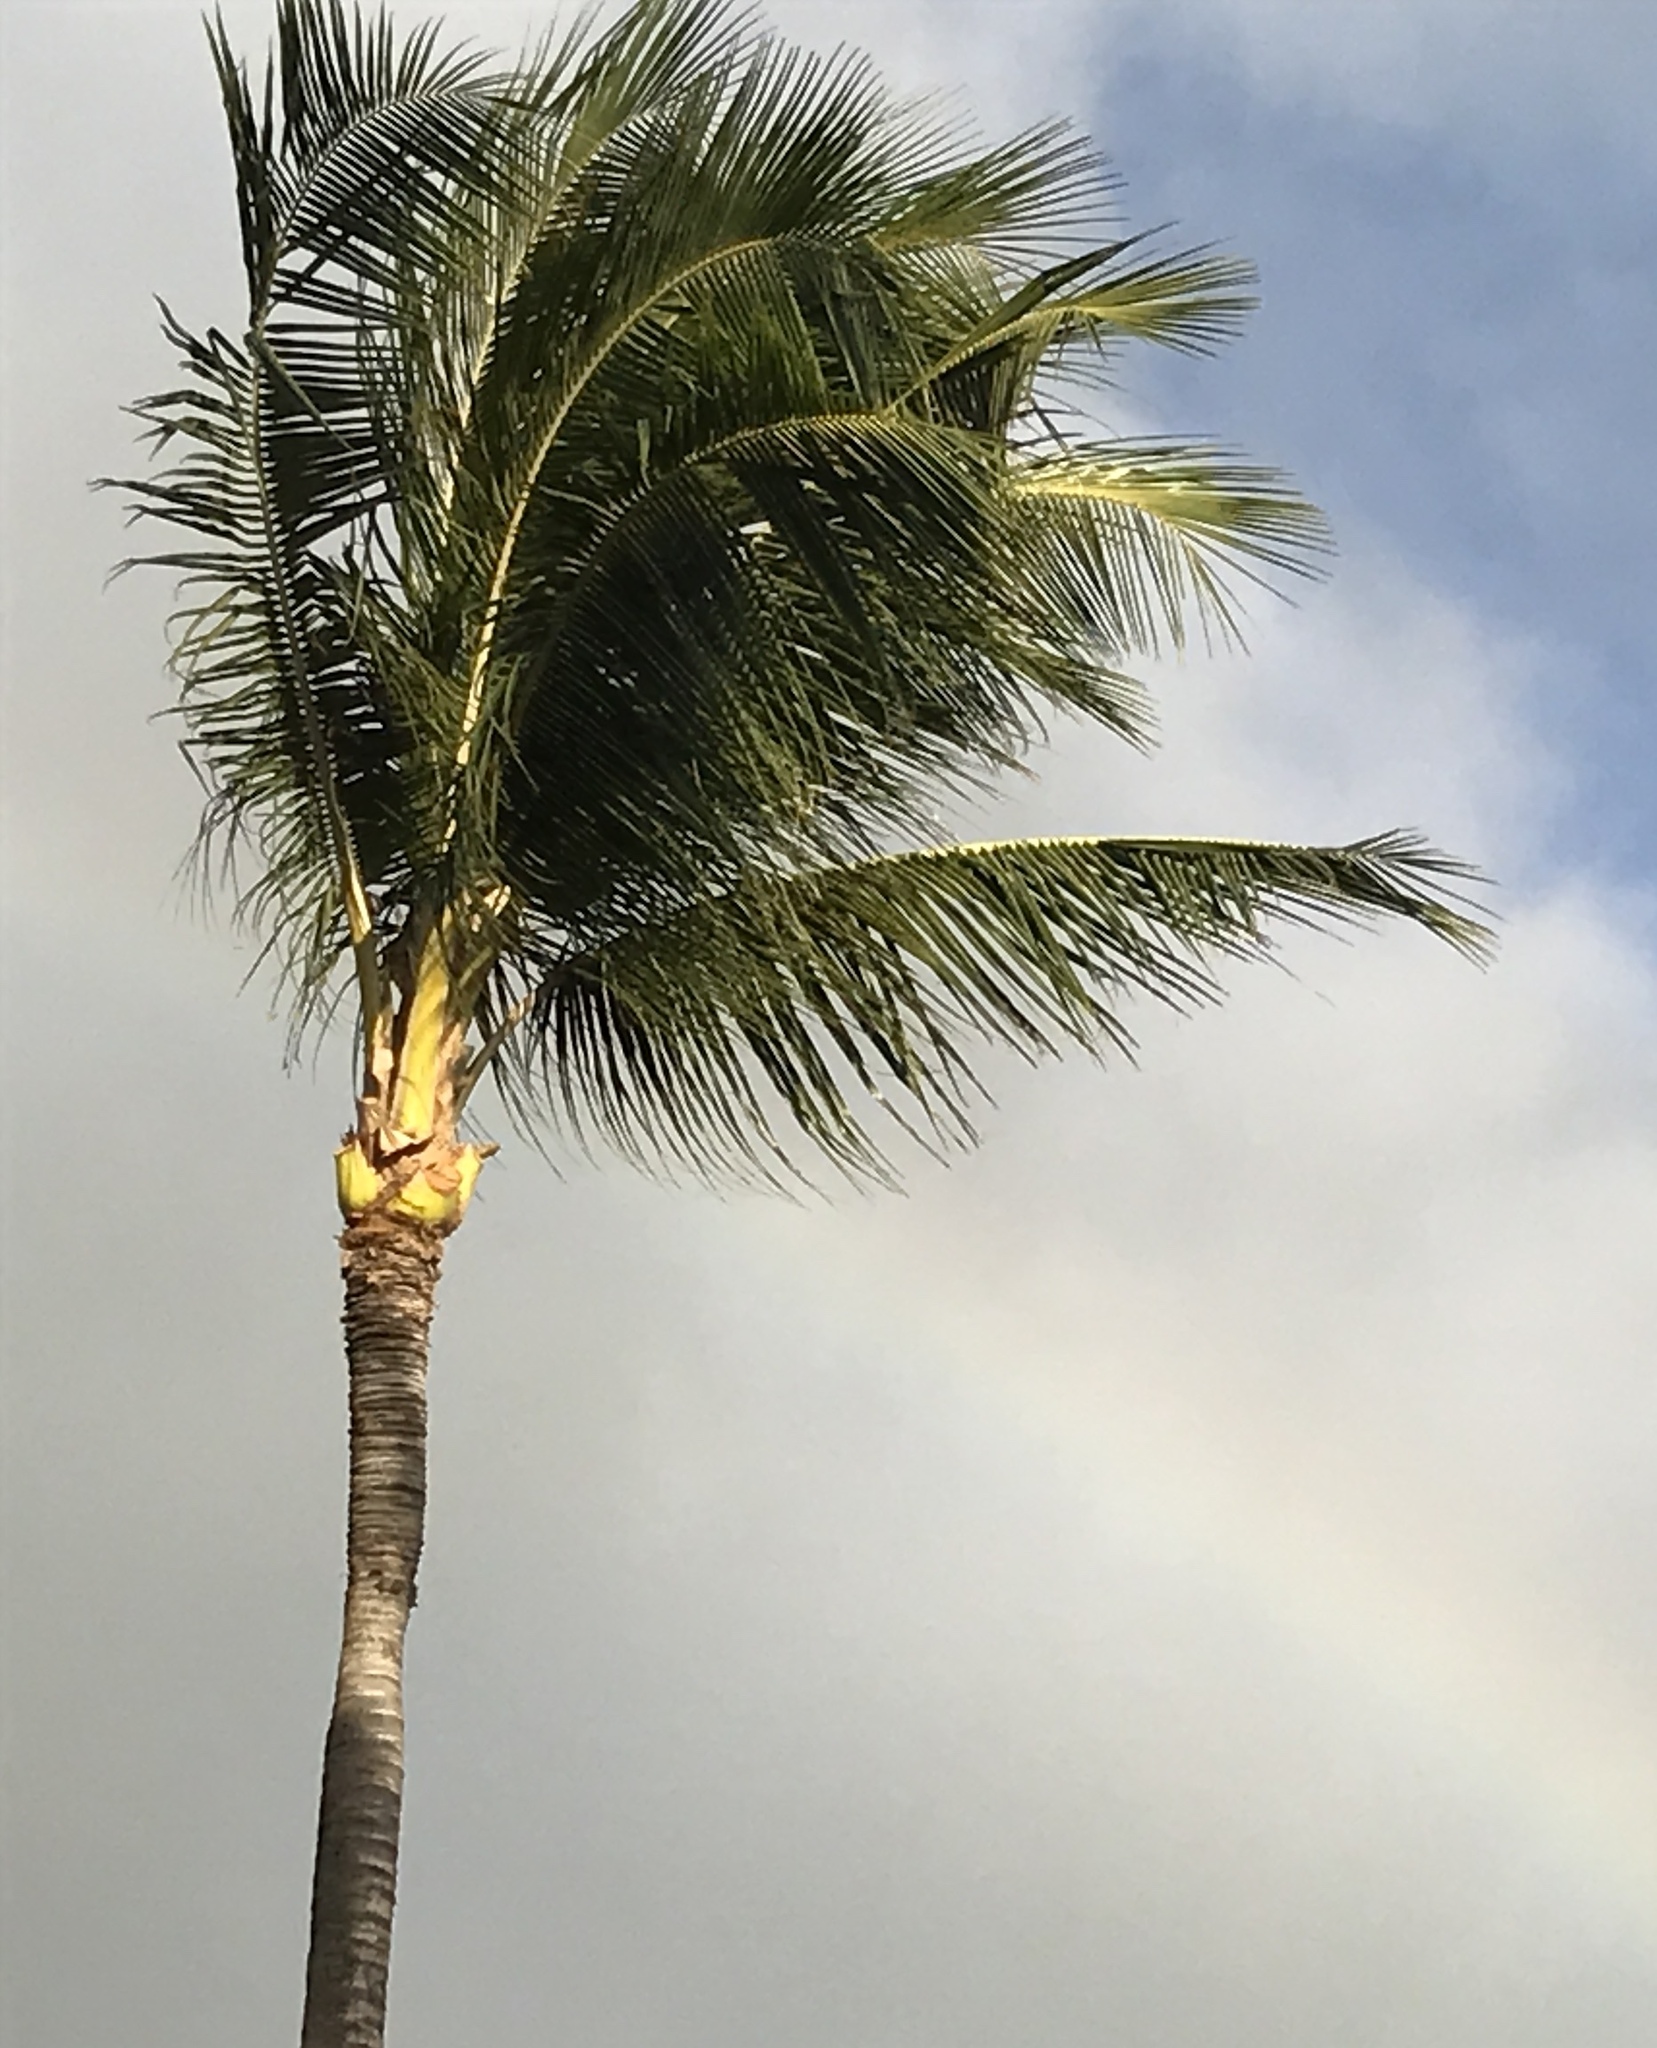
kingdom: Plantae
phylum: Tracheophyta
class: Liliopsida
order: Arecales
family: Arecaceae
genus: Cocos
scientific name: Cocos nucifera
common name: Coconut palm
